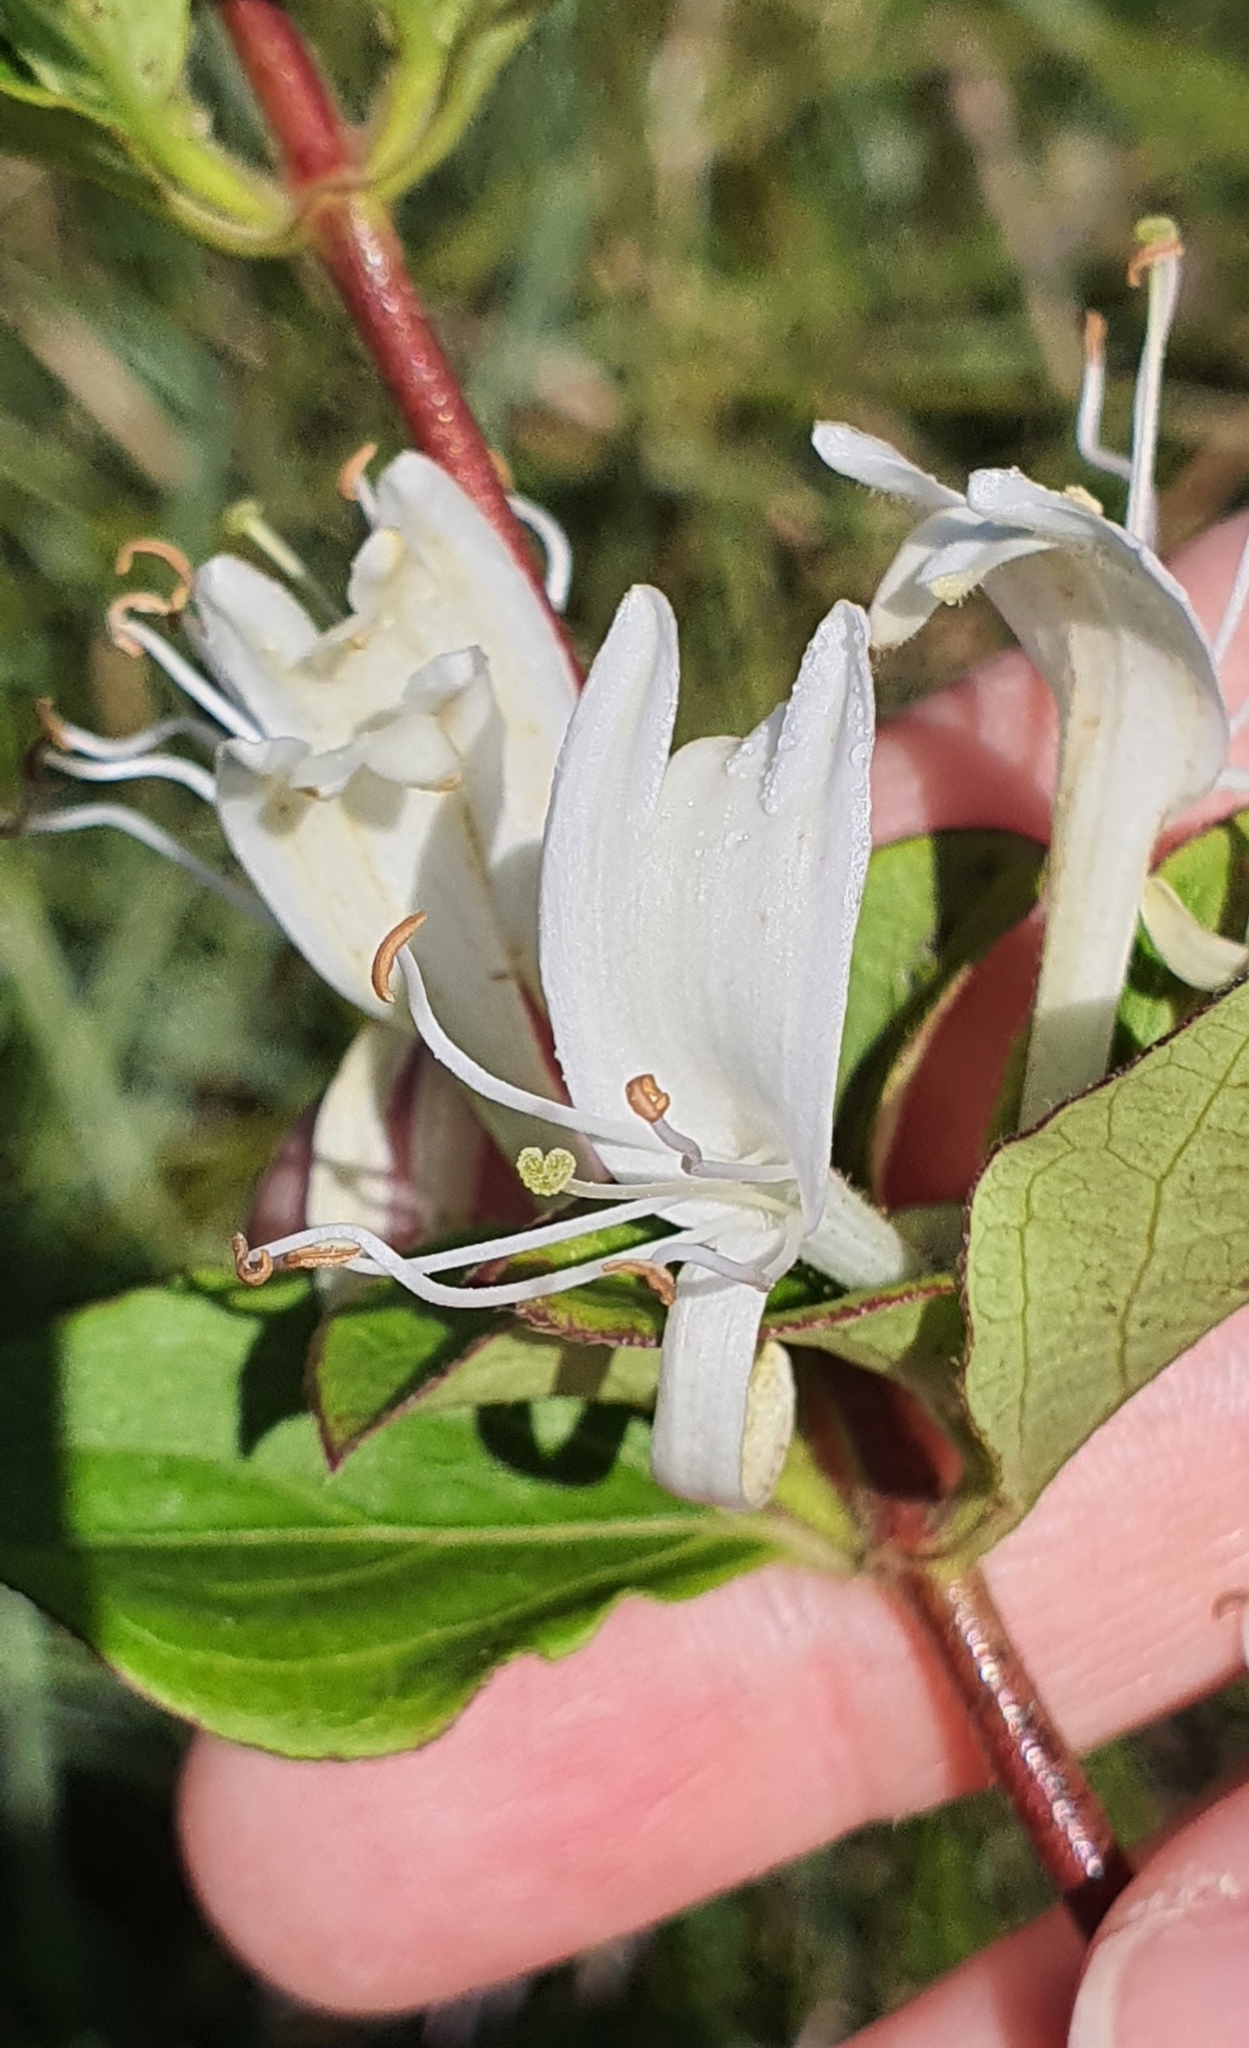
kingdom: Plantae
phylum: Tracheophyta
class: Magnoliopsida
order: Dipsacales
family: Caprifoliaceae
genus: Lonicera
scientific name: Lonicera japonica
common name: Japanese honeysuckle
